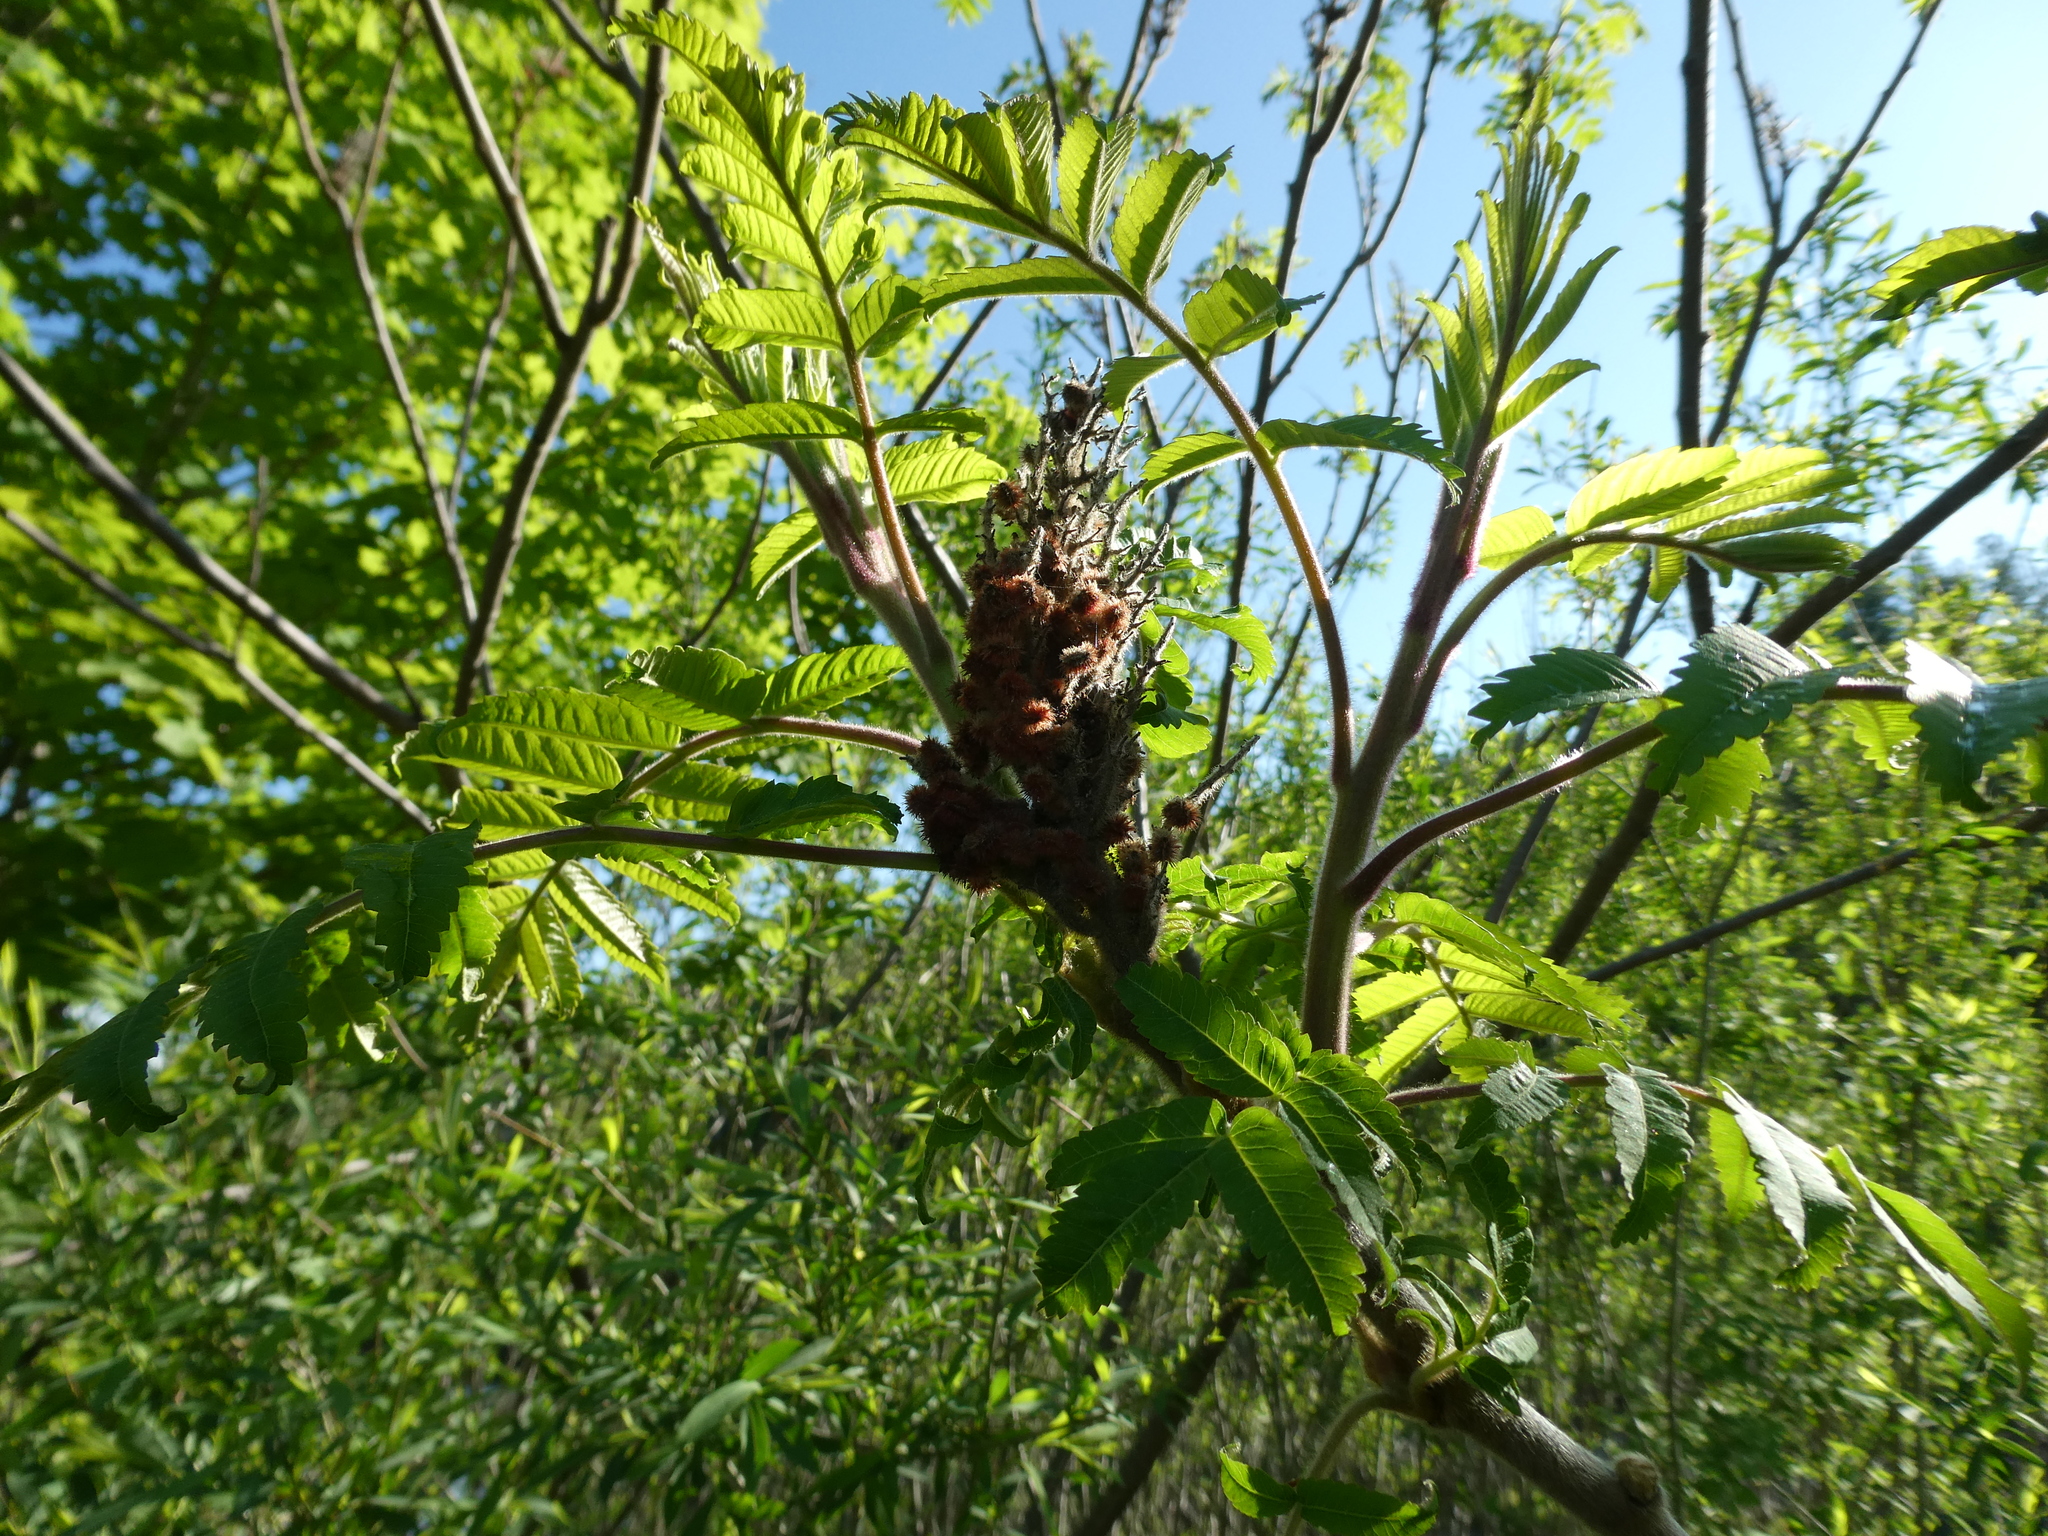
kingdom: Plantae
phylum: Tracheophyta
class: Magnoliopsida
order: Sapindales
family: Anacardiaceae
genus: Rhus
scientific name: Rhus typhina
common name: Staghorn sumac
